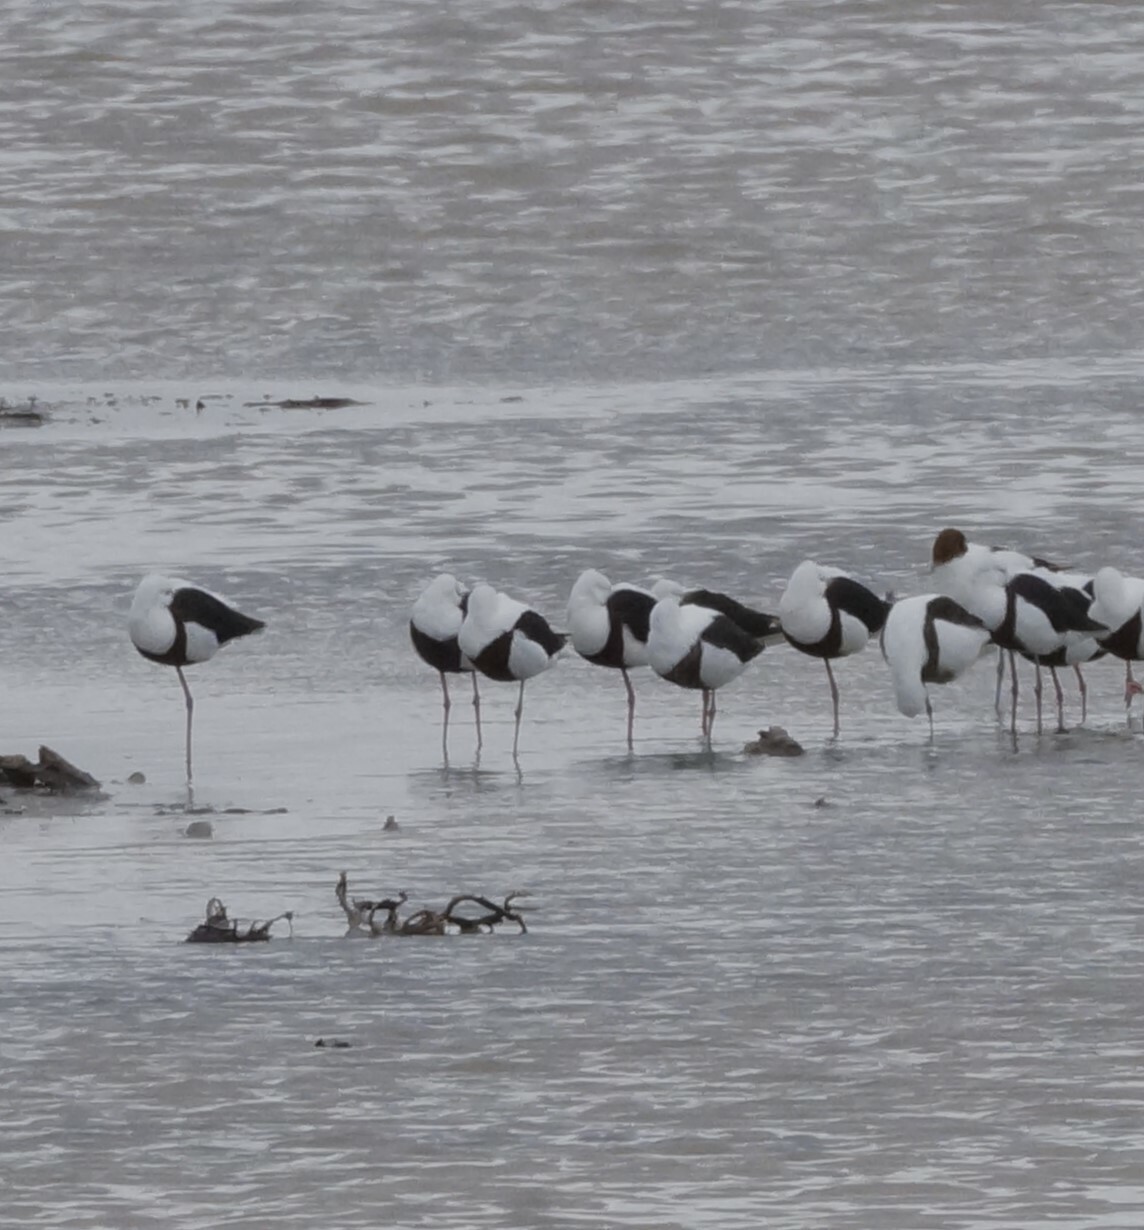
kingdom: Animalia
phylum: Chordata
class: Aves
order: Charadriiformes
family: Recurvirostridae
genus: Cladorhynchus
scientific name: Cladorhynchus leucocephalus
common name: Banded stilt
